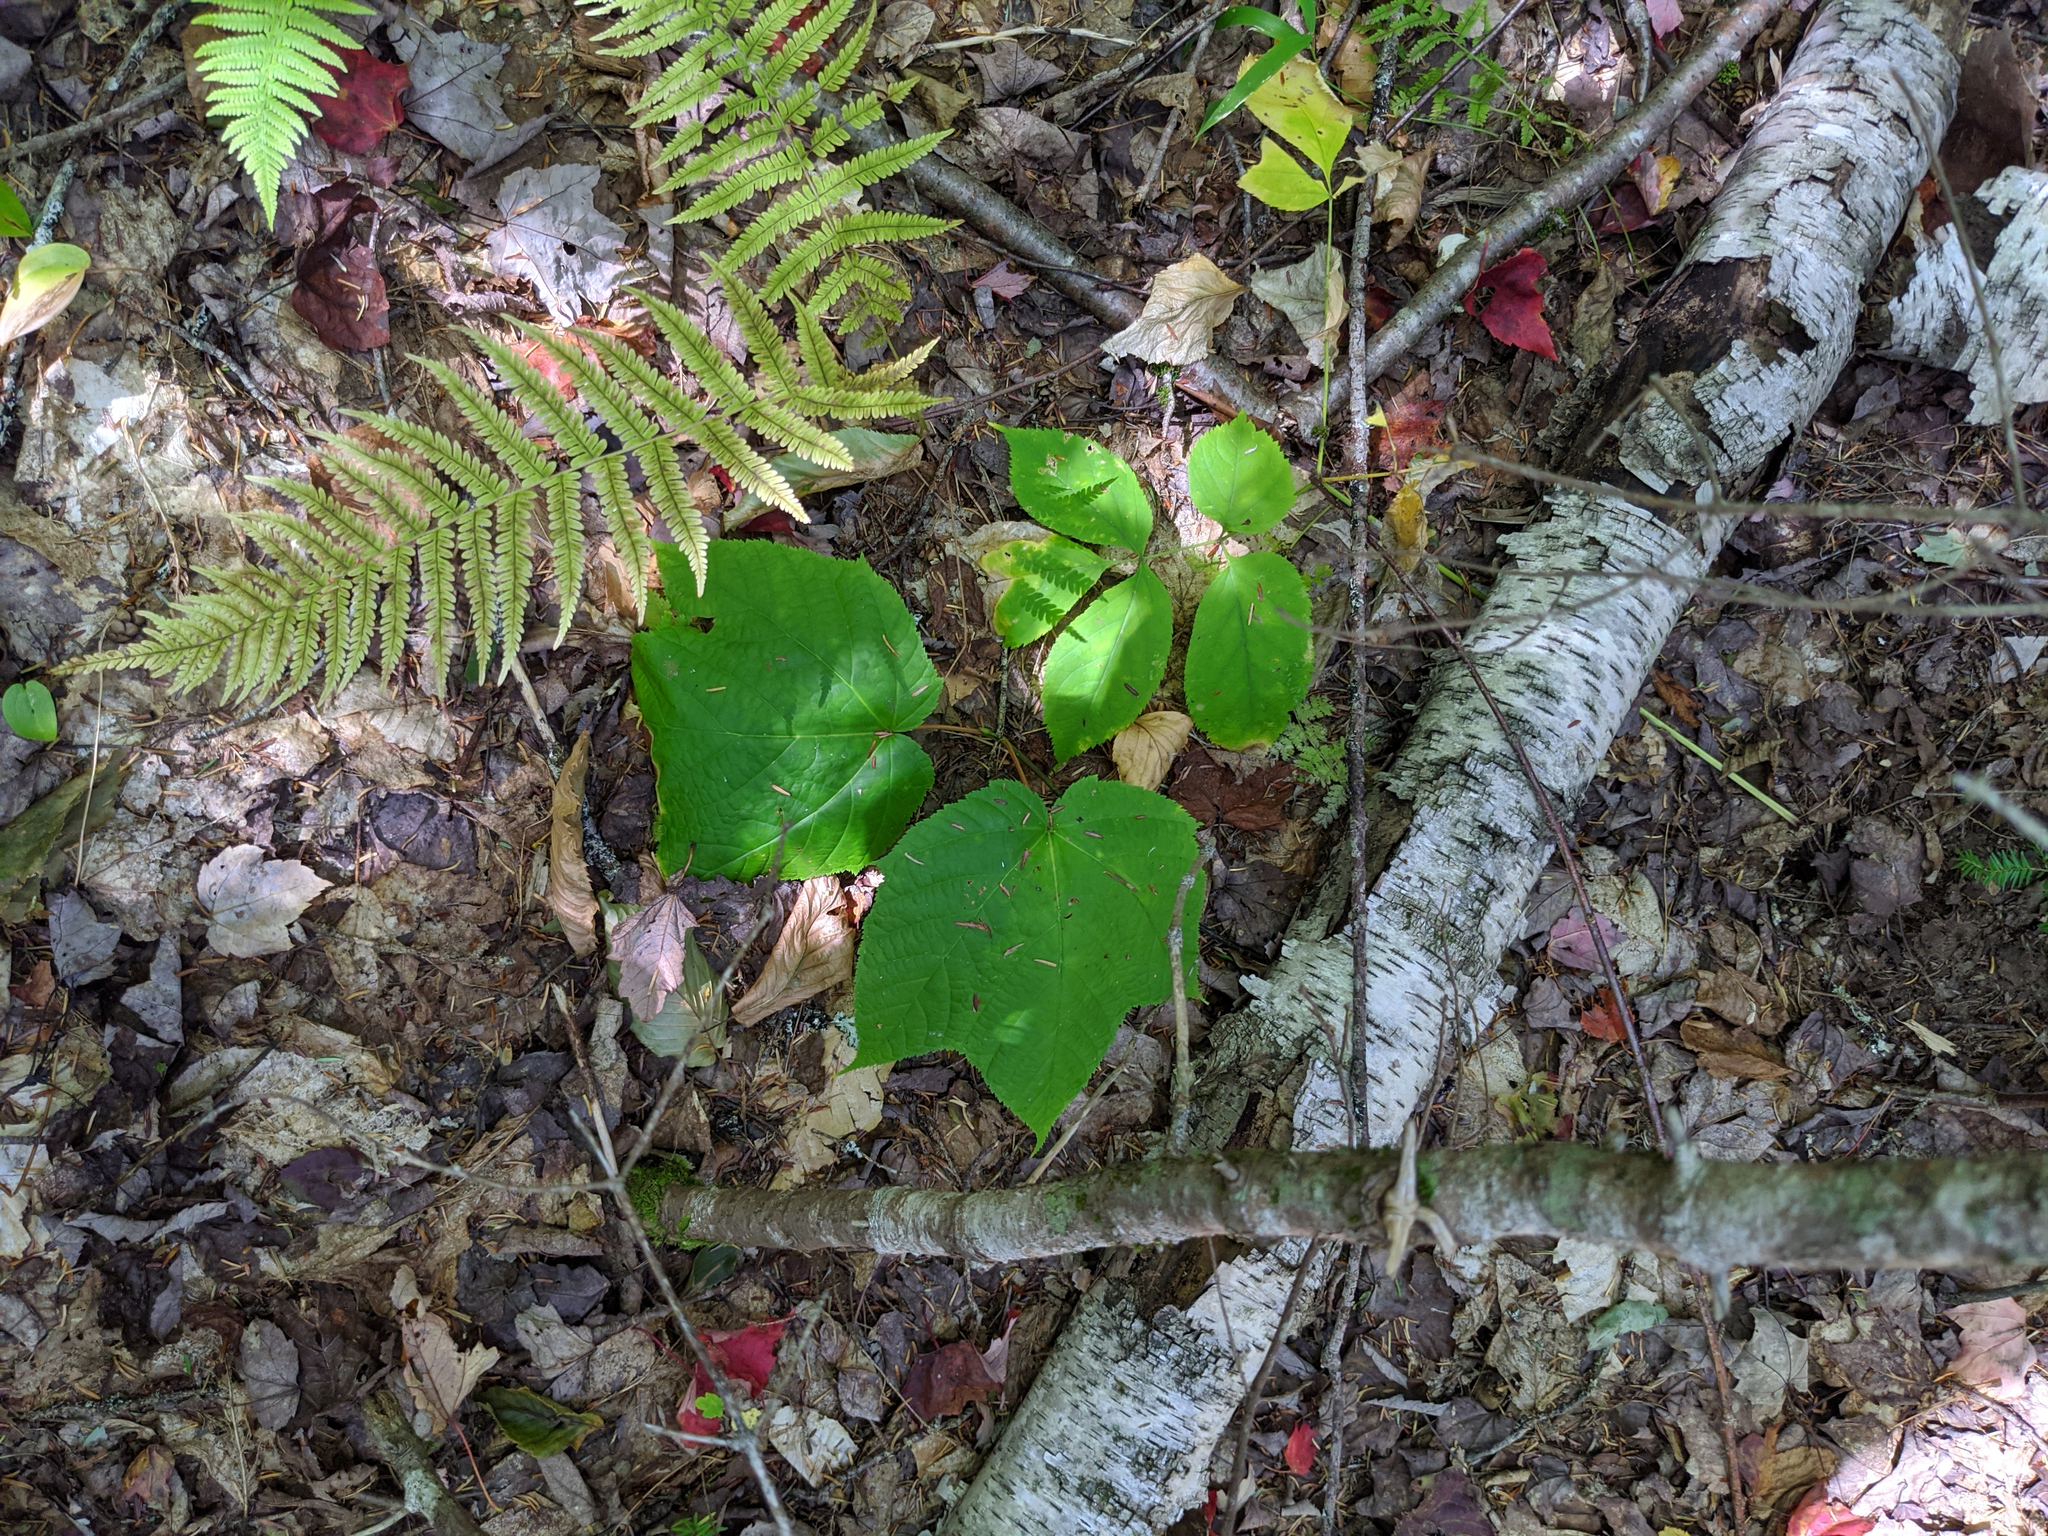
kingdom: Plantae
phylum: Tracheophyta
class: Magnoliopsida
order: Sapindales
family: Sapindaceae
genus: Acer
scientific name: Acer pensylvanicum
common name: Moosewood
